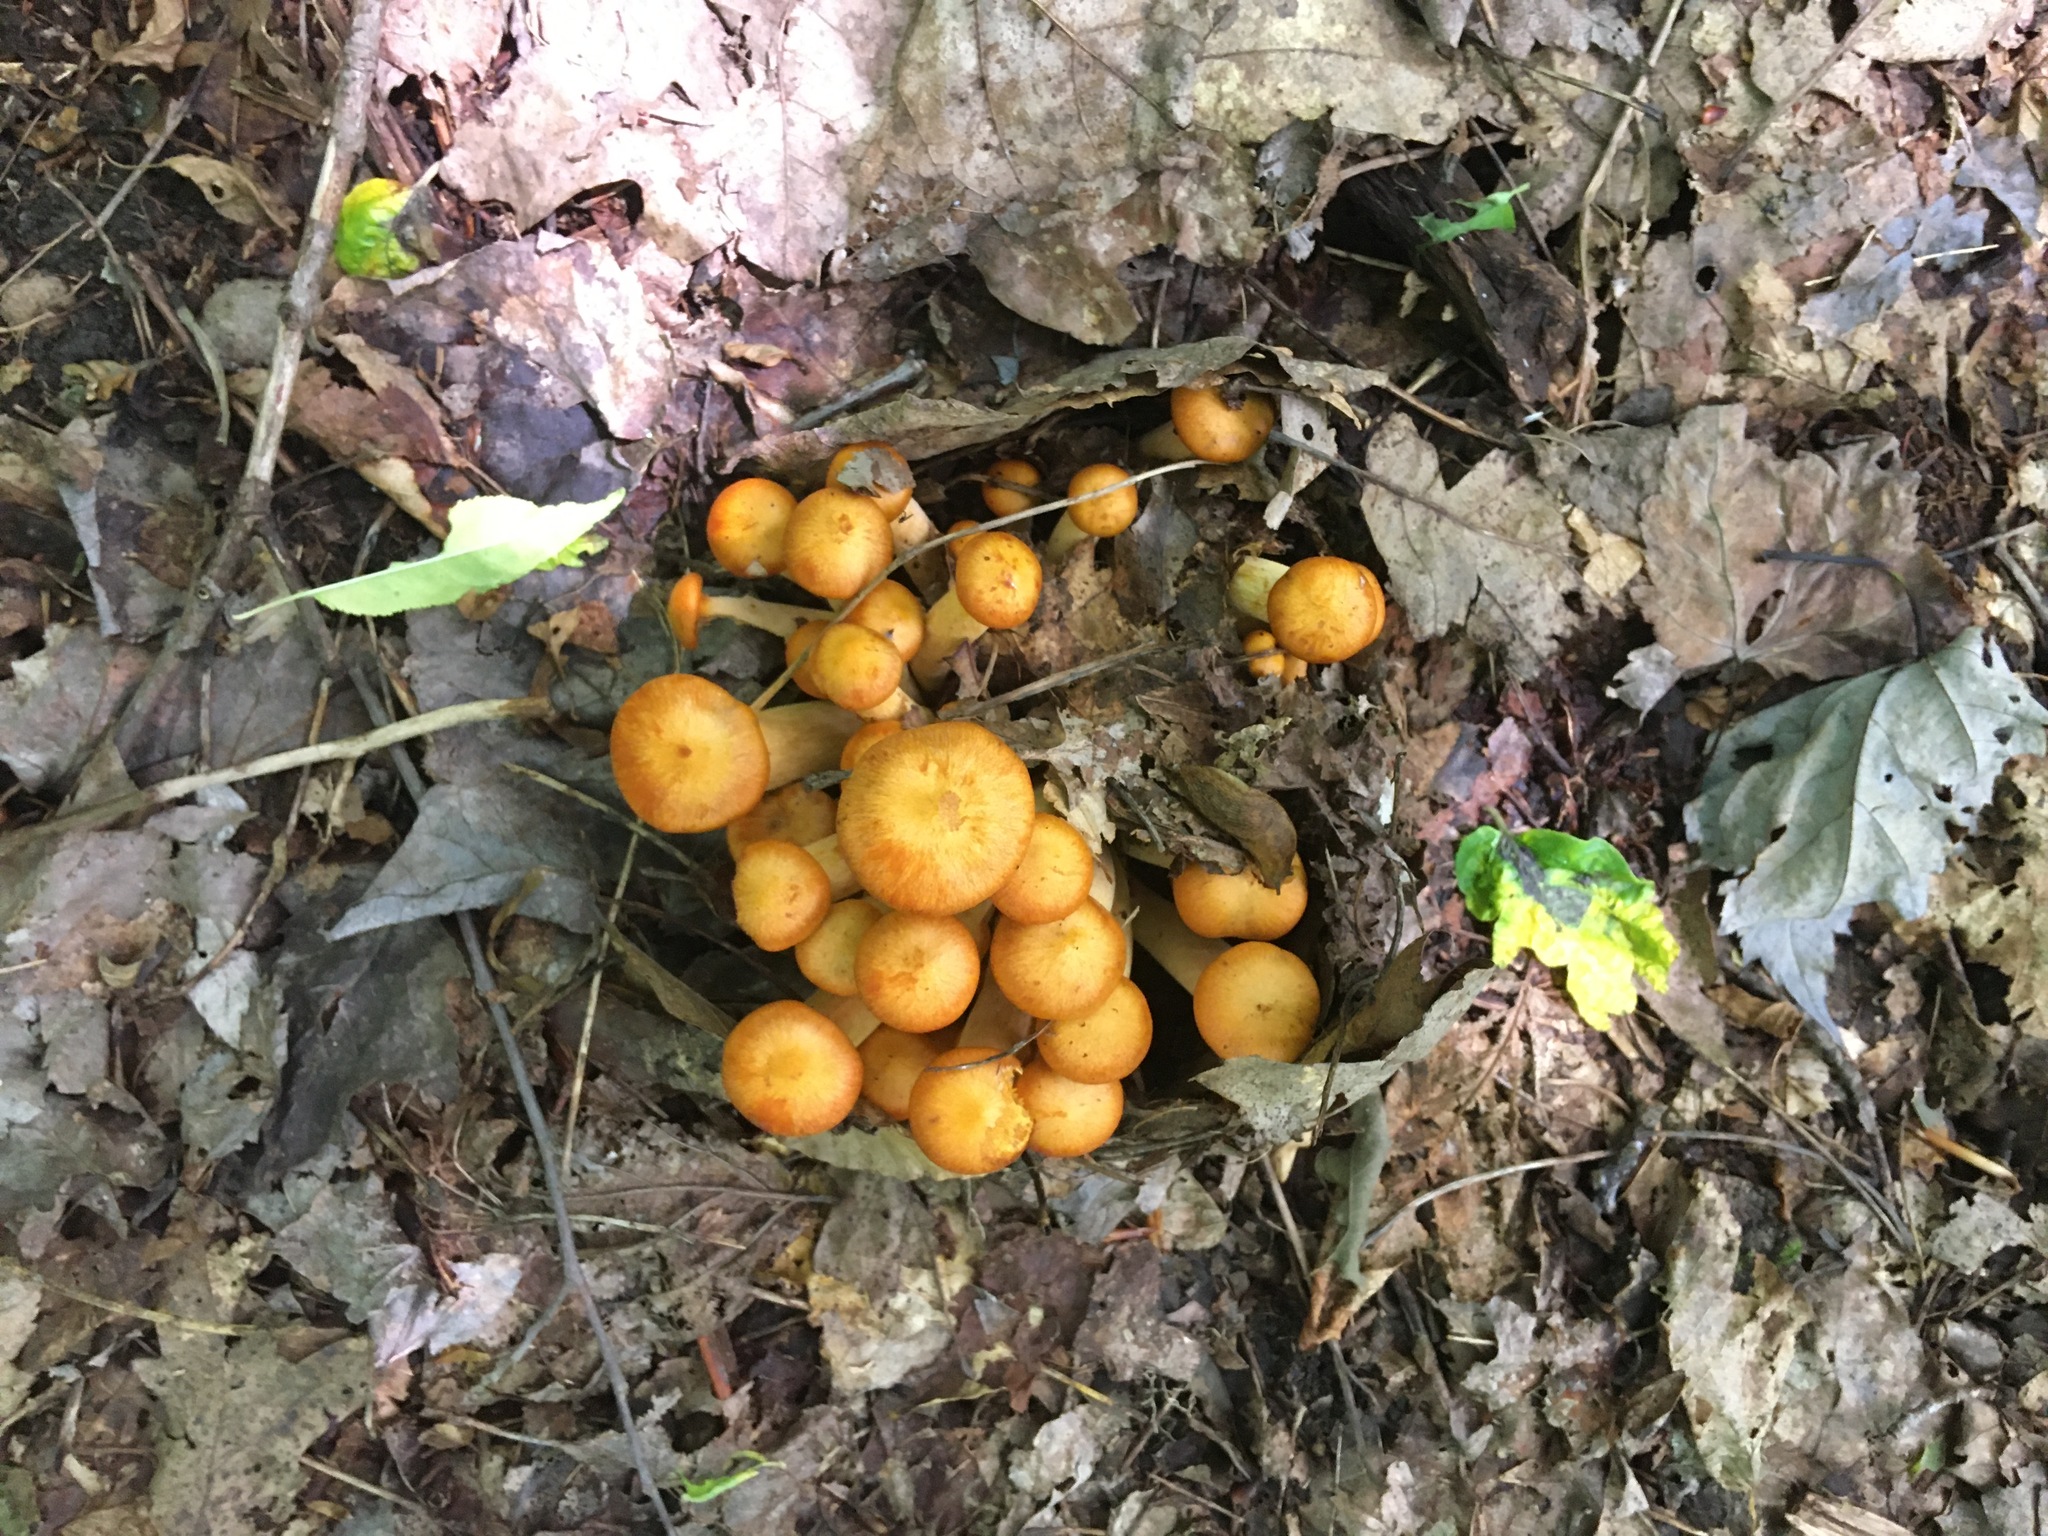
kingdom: Fungi
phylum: Basidiomycota
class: Agaricomycetes
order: Agaricales
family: Omphalotaceae
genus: Omphalotus
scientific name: Omphalotus illudens
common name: Jack o lantern
